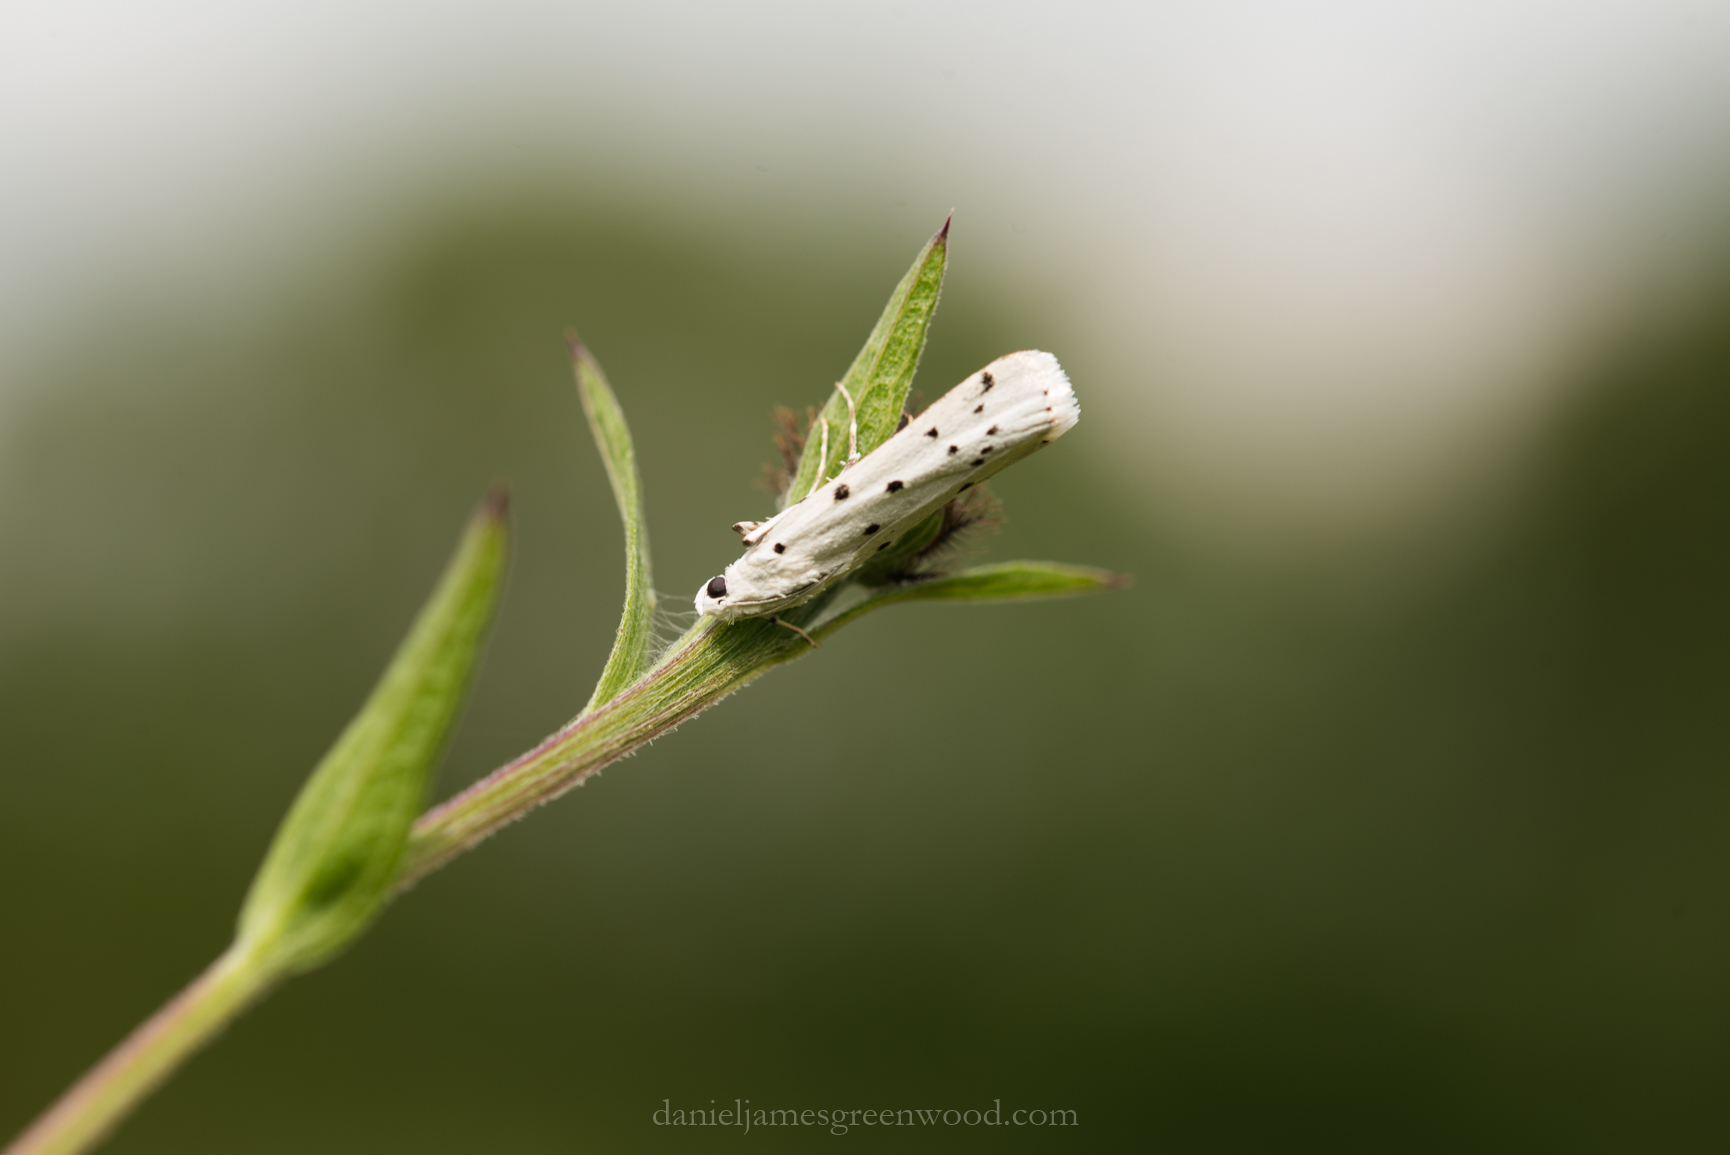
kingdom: Animalia
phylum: Arthropoda
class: Insecta
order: Lepidoptera
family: Pyralidae
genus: Myelois
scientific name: Myelois circumvoluta
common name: Thistle ermine
